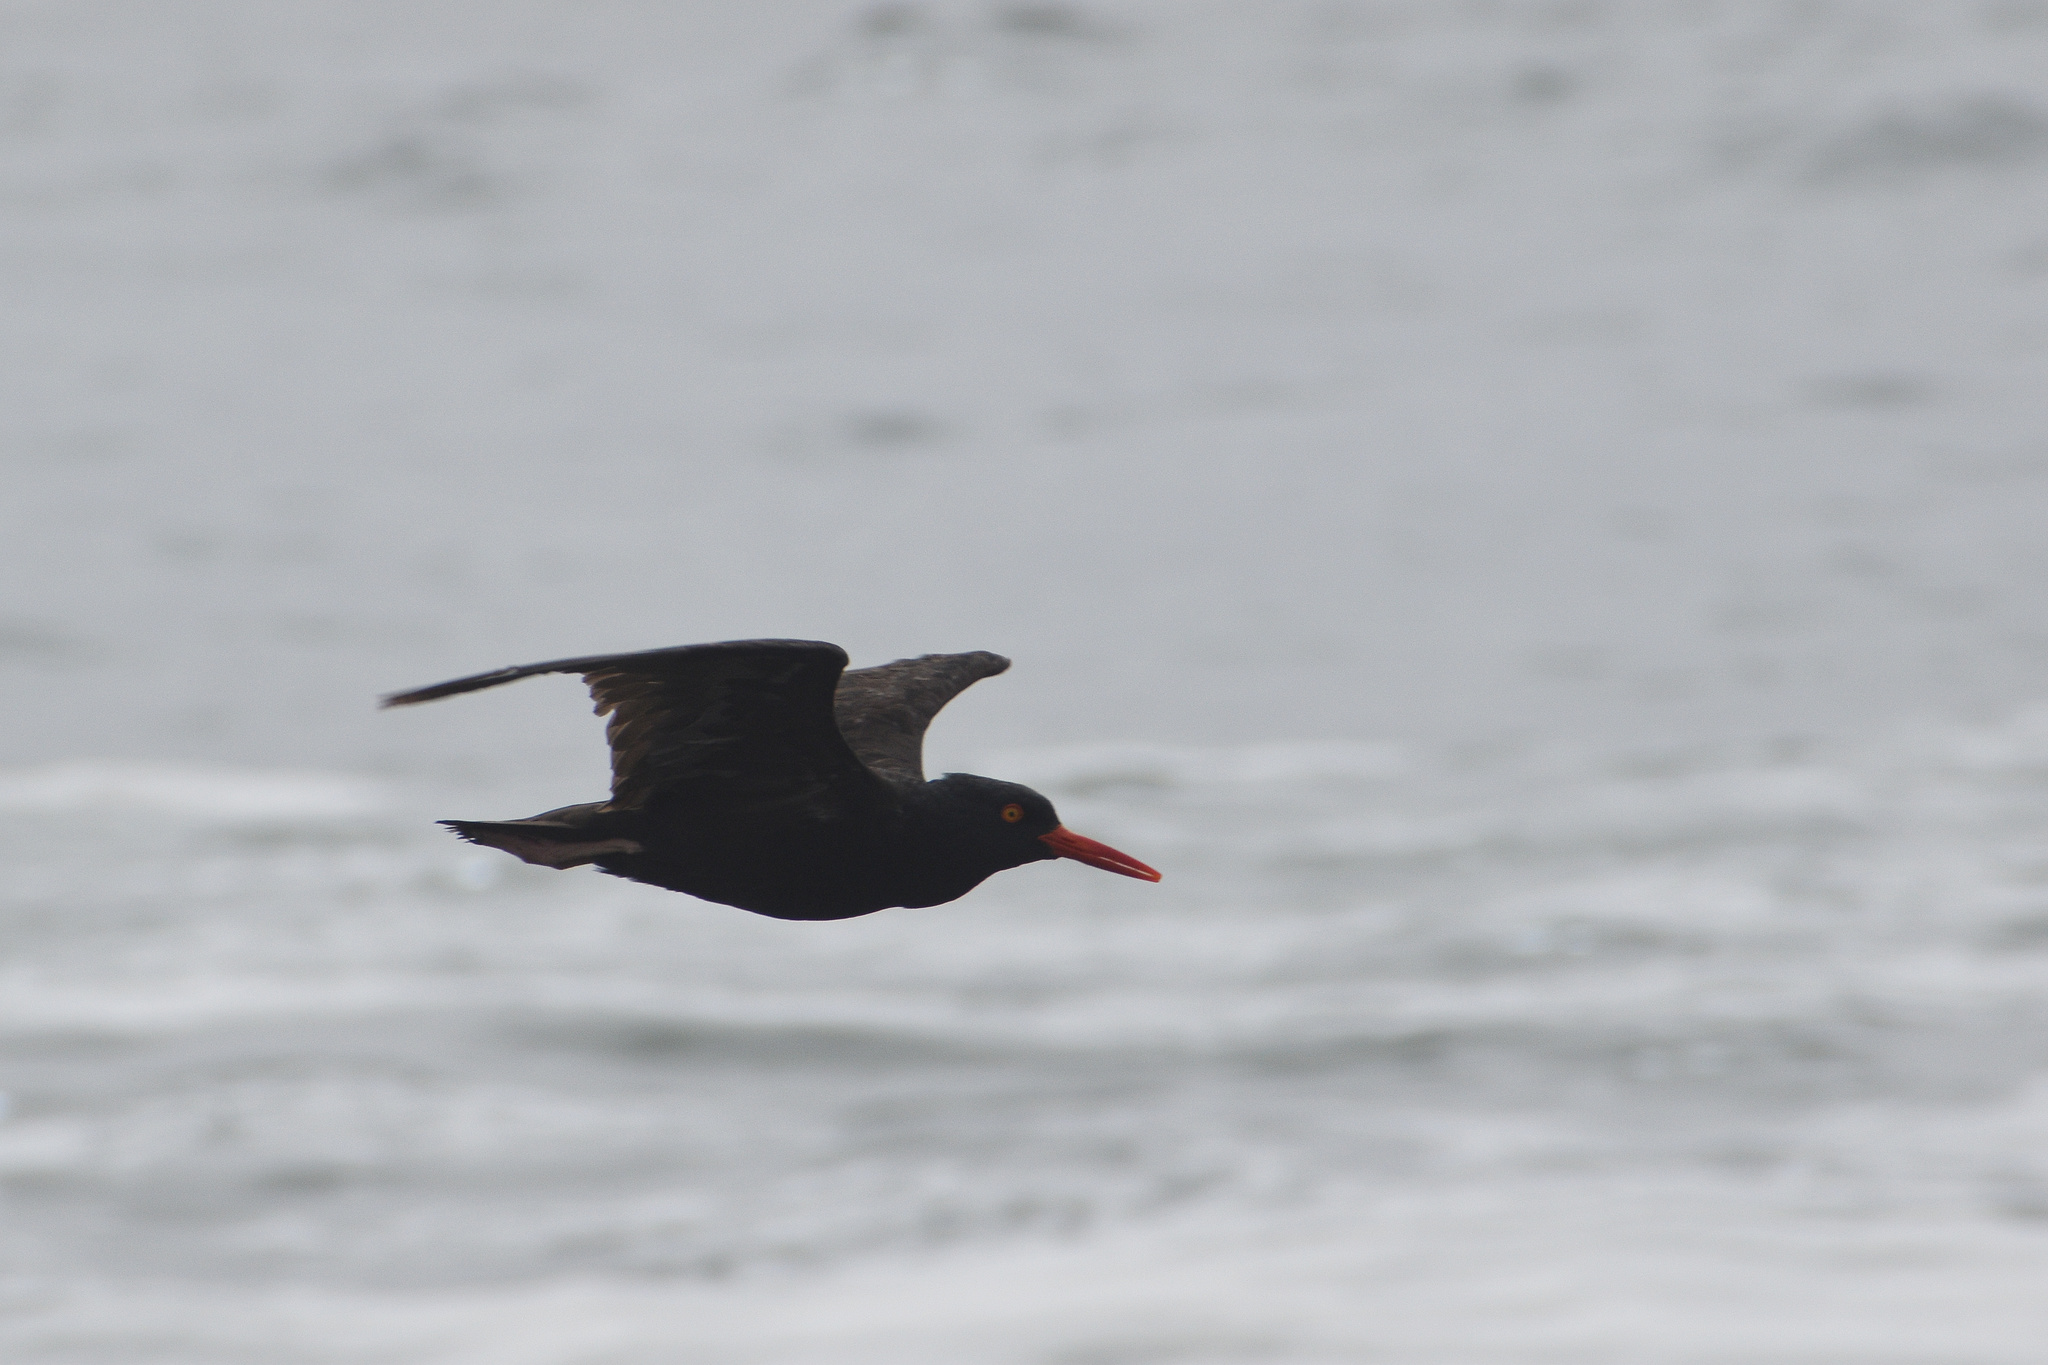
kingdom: Animalia
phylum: Chordata
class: Aves
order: Charadriiformes
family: Haematopodidae
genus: Haematopus
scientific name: Haematopus bachmani
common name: Black oystercatcher
